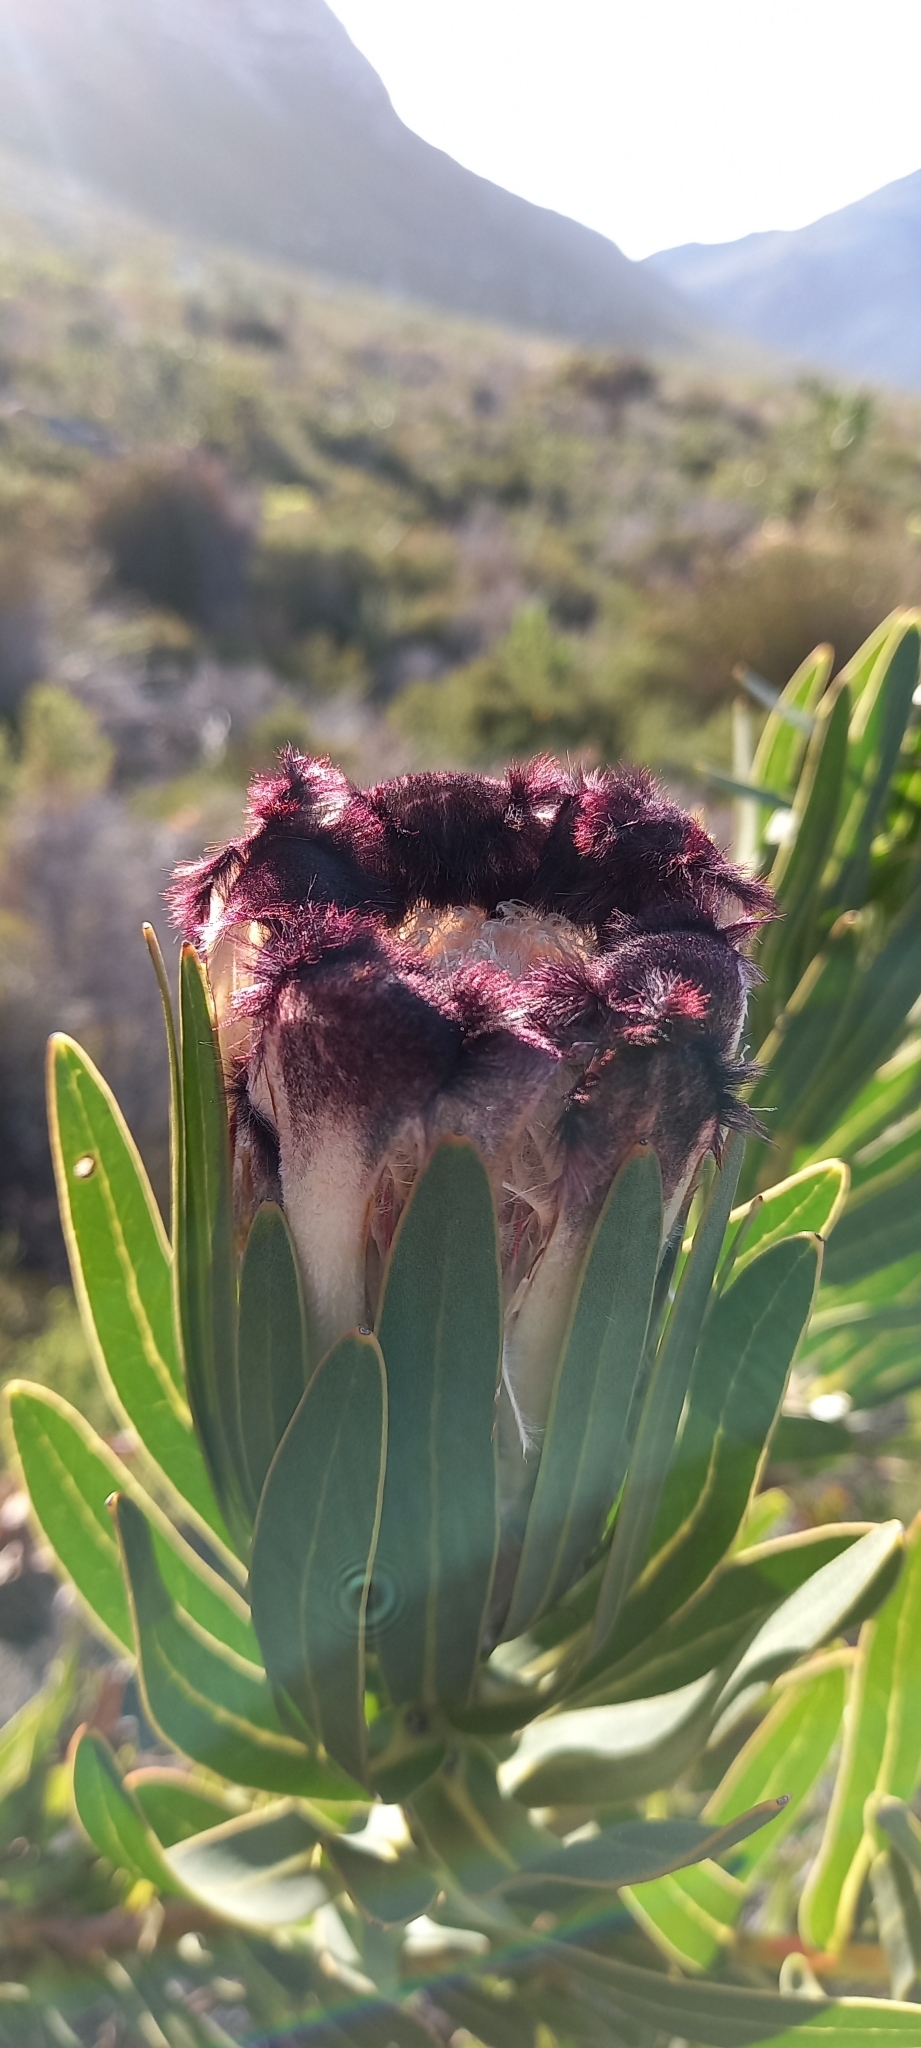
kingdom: Plantae
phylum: Tracheophyta
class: Magnoliopsida
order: Proteales
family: Proteaceae
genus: Protea
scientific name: Protea lepidocarpodendron
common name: Black-bearded protea
